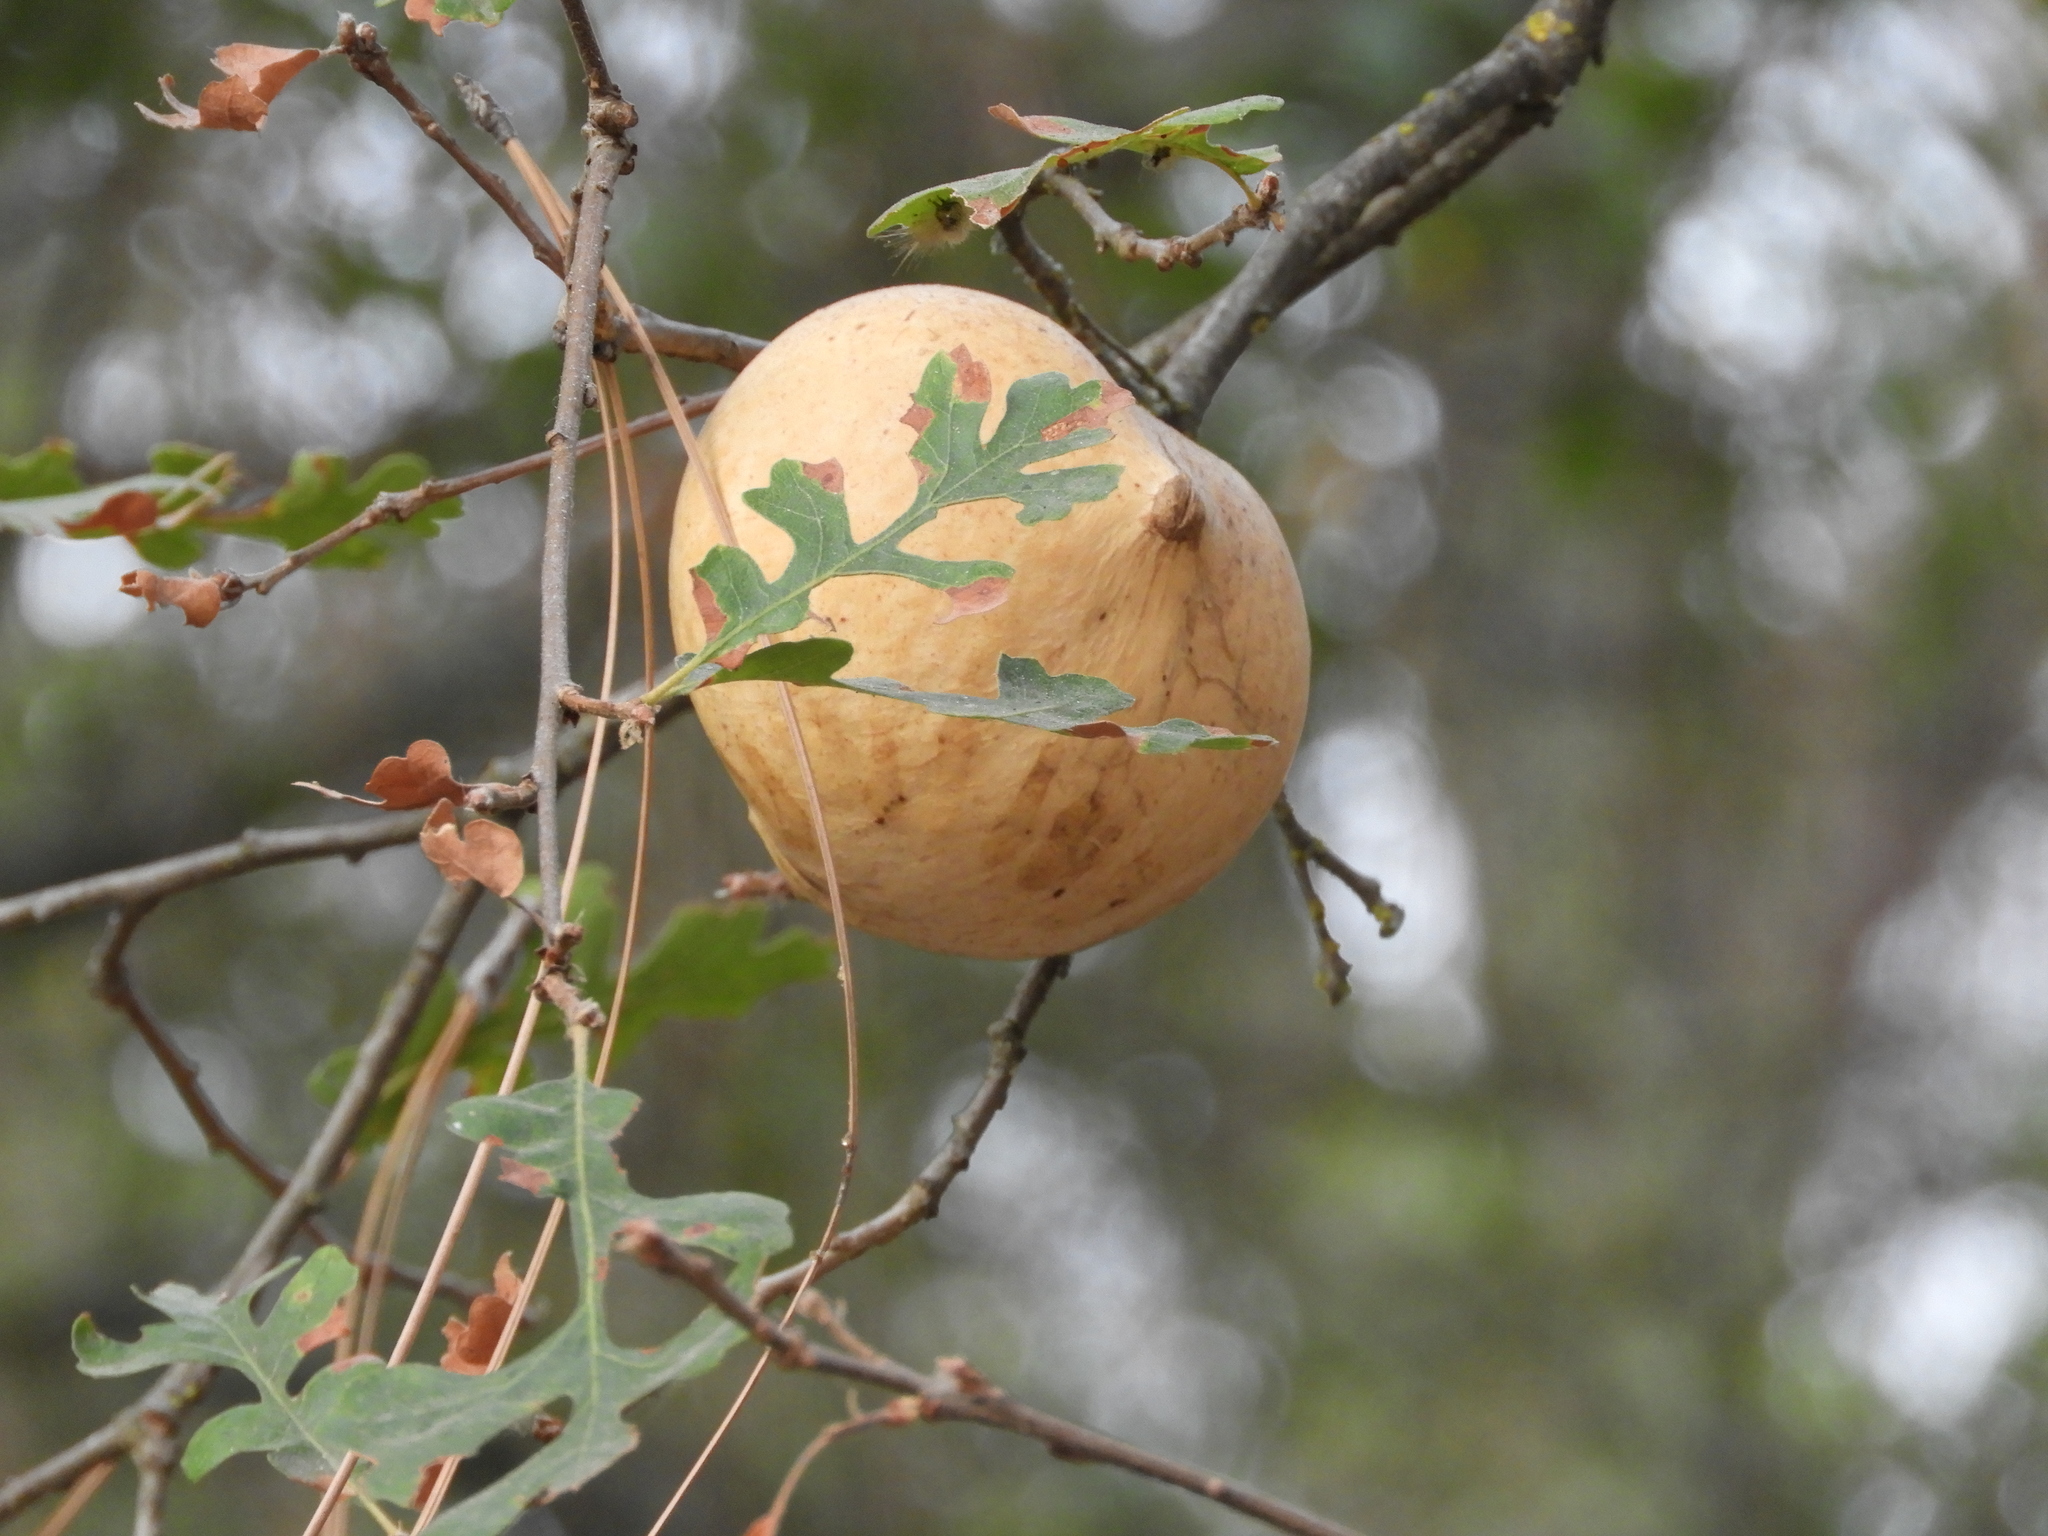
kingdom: Animalia
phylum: Arthropoda
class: Insecta
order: Hymenoptera
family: Cynipidae
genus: Andricus
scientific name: Andricus quercuscalifornicus
